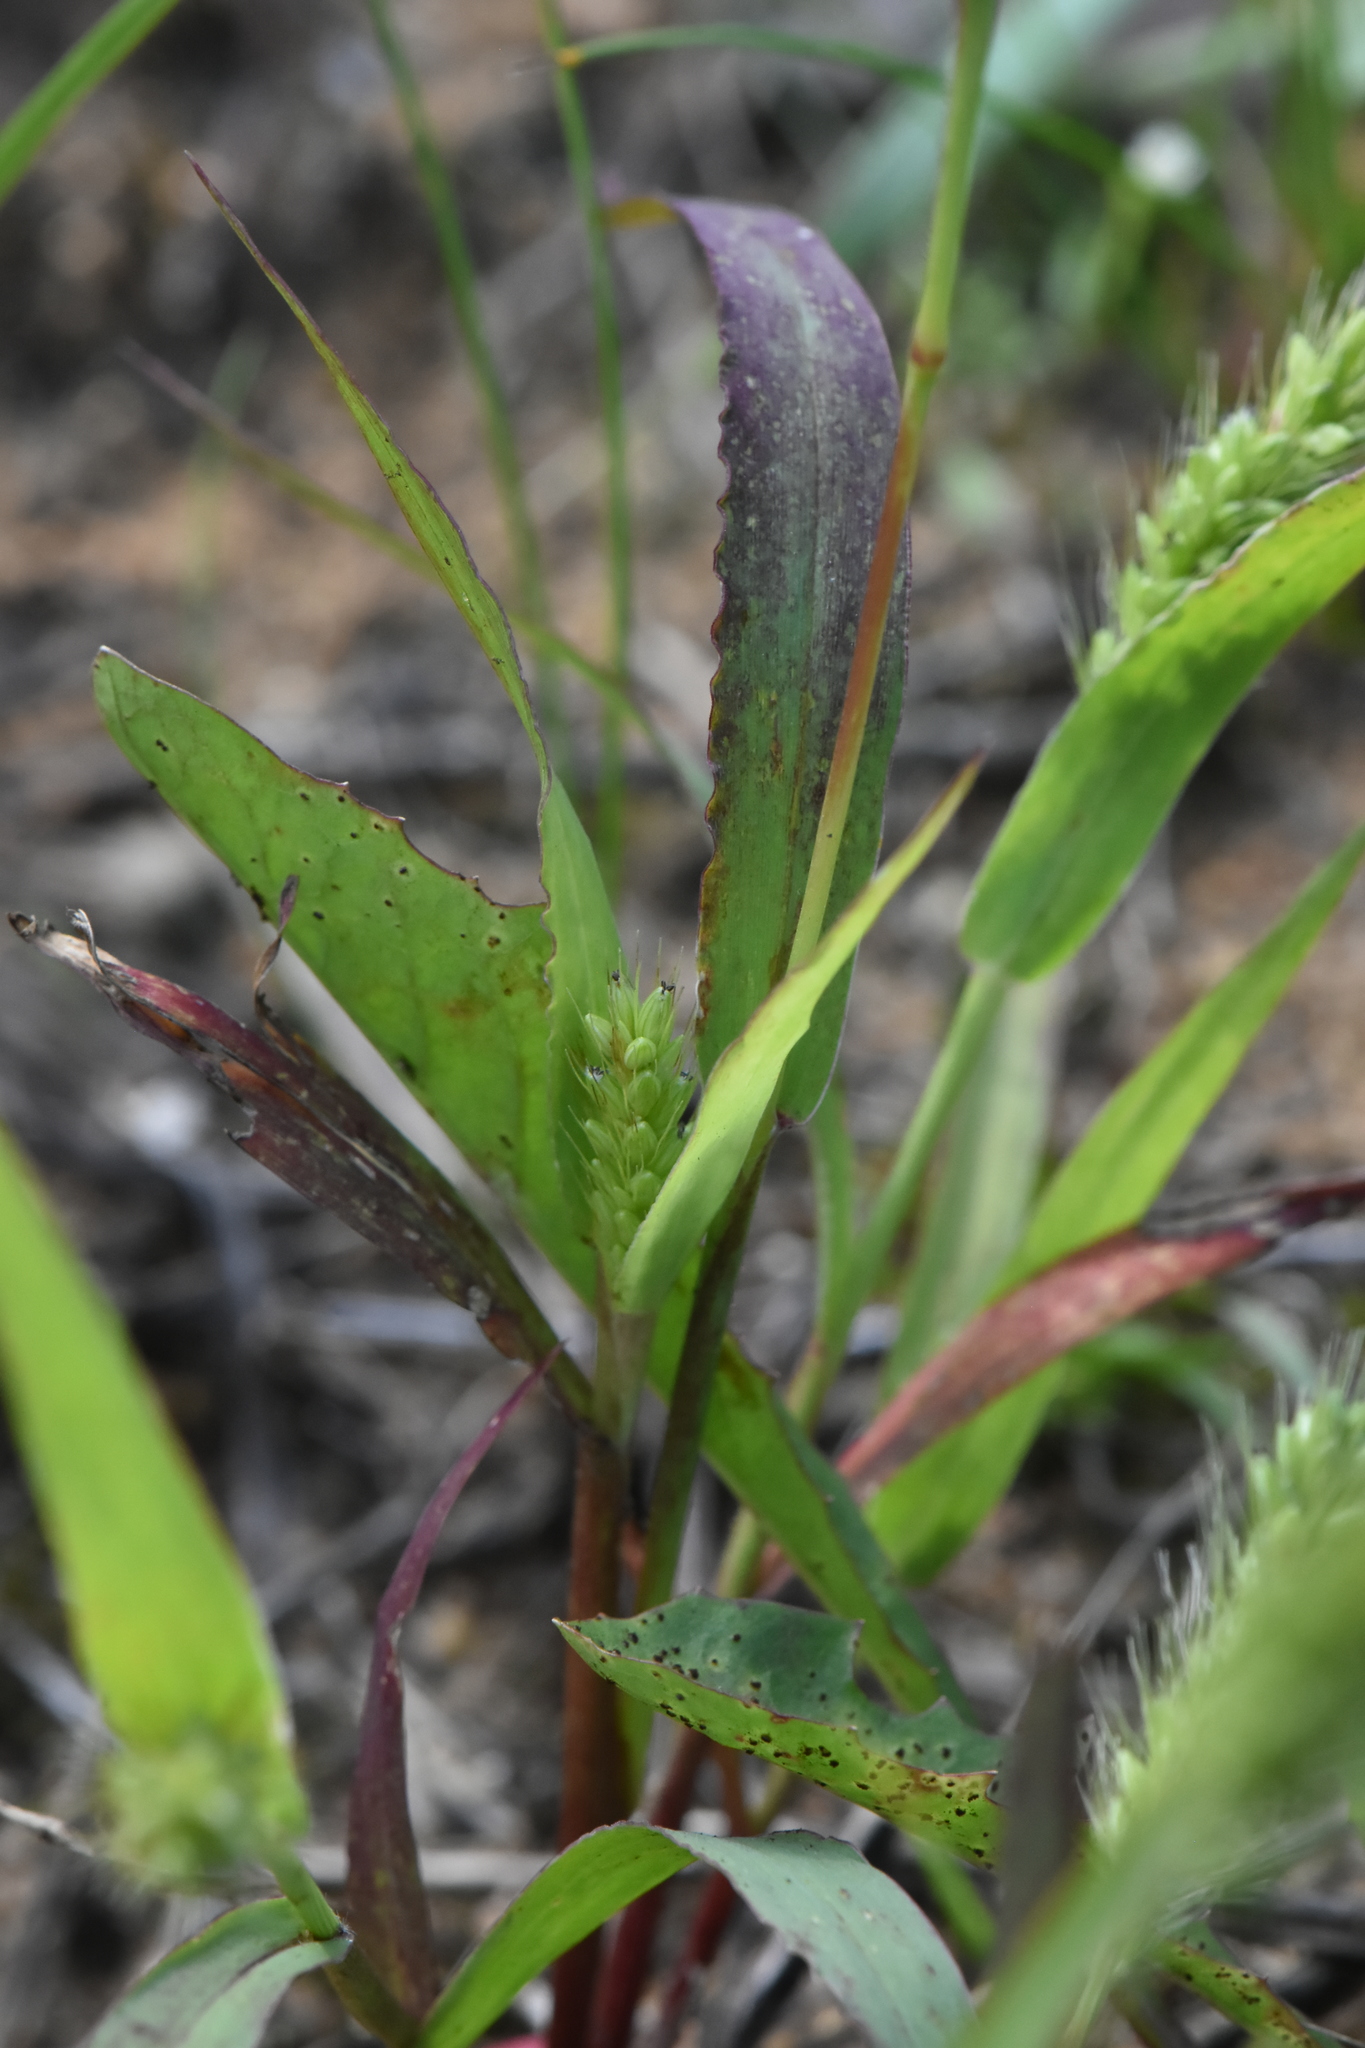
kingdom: Plantae
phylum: Tracheophyta
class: Liliopsida
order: Poales
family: Poaceae
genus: Setaria
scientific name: Setaria viridis
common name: Green bristlegrass
